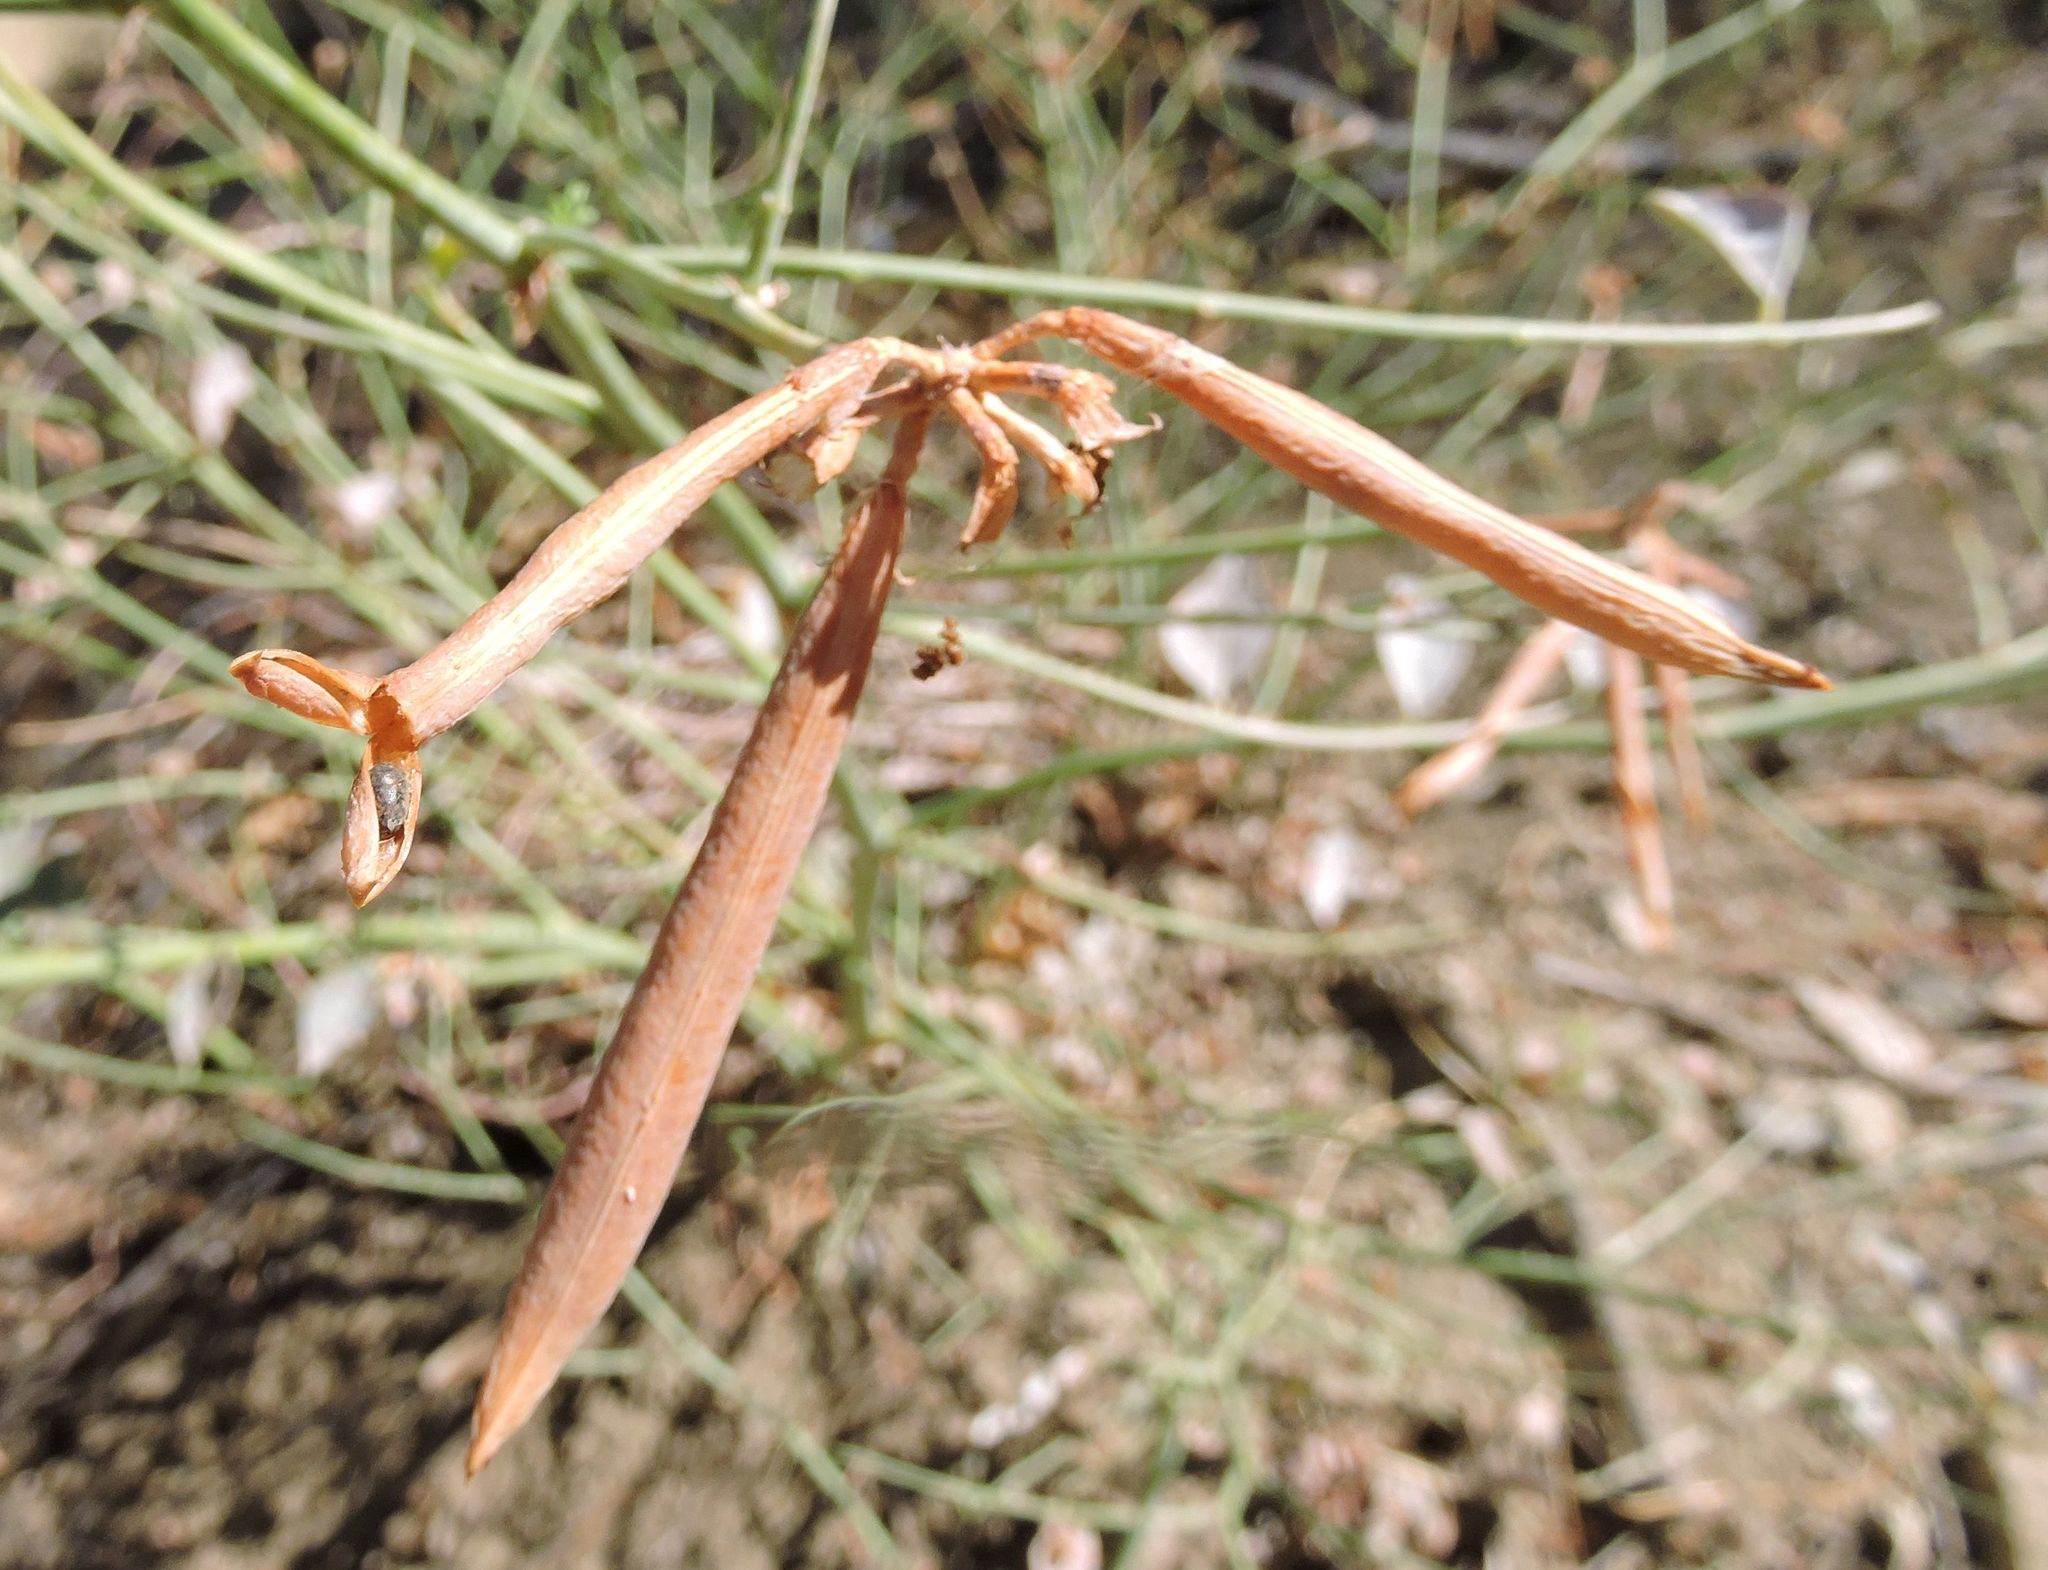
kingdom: Plantae
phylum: Tracheophyta
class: Magnoliopsida
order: Fabales
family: Fabaceae
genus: Hosackia
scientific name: Hosackia crassifolia
